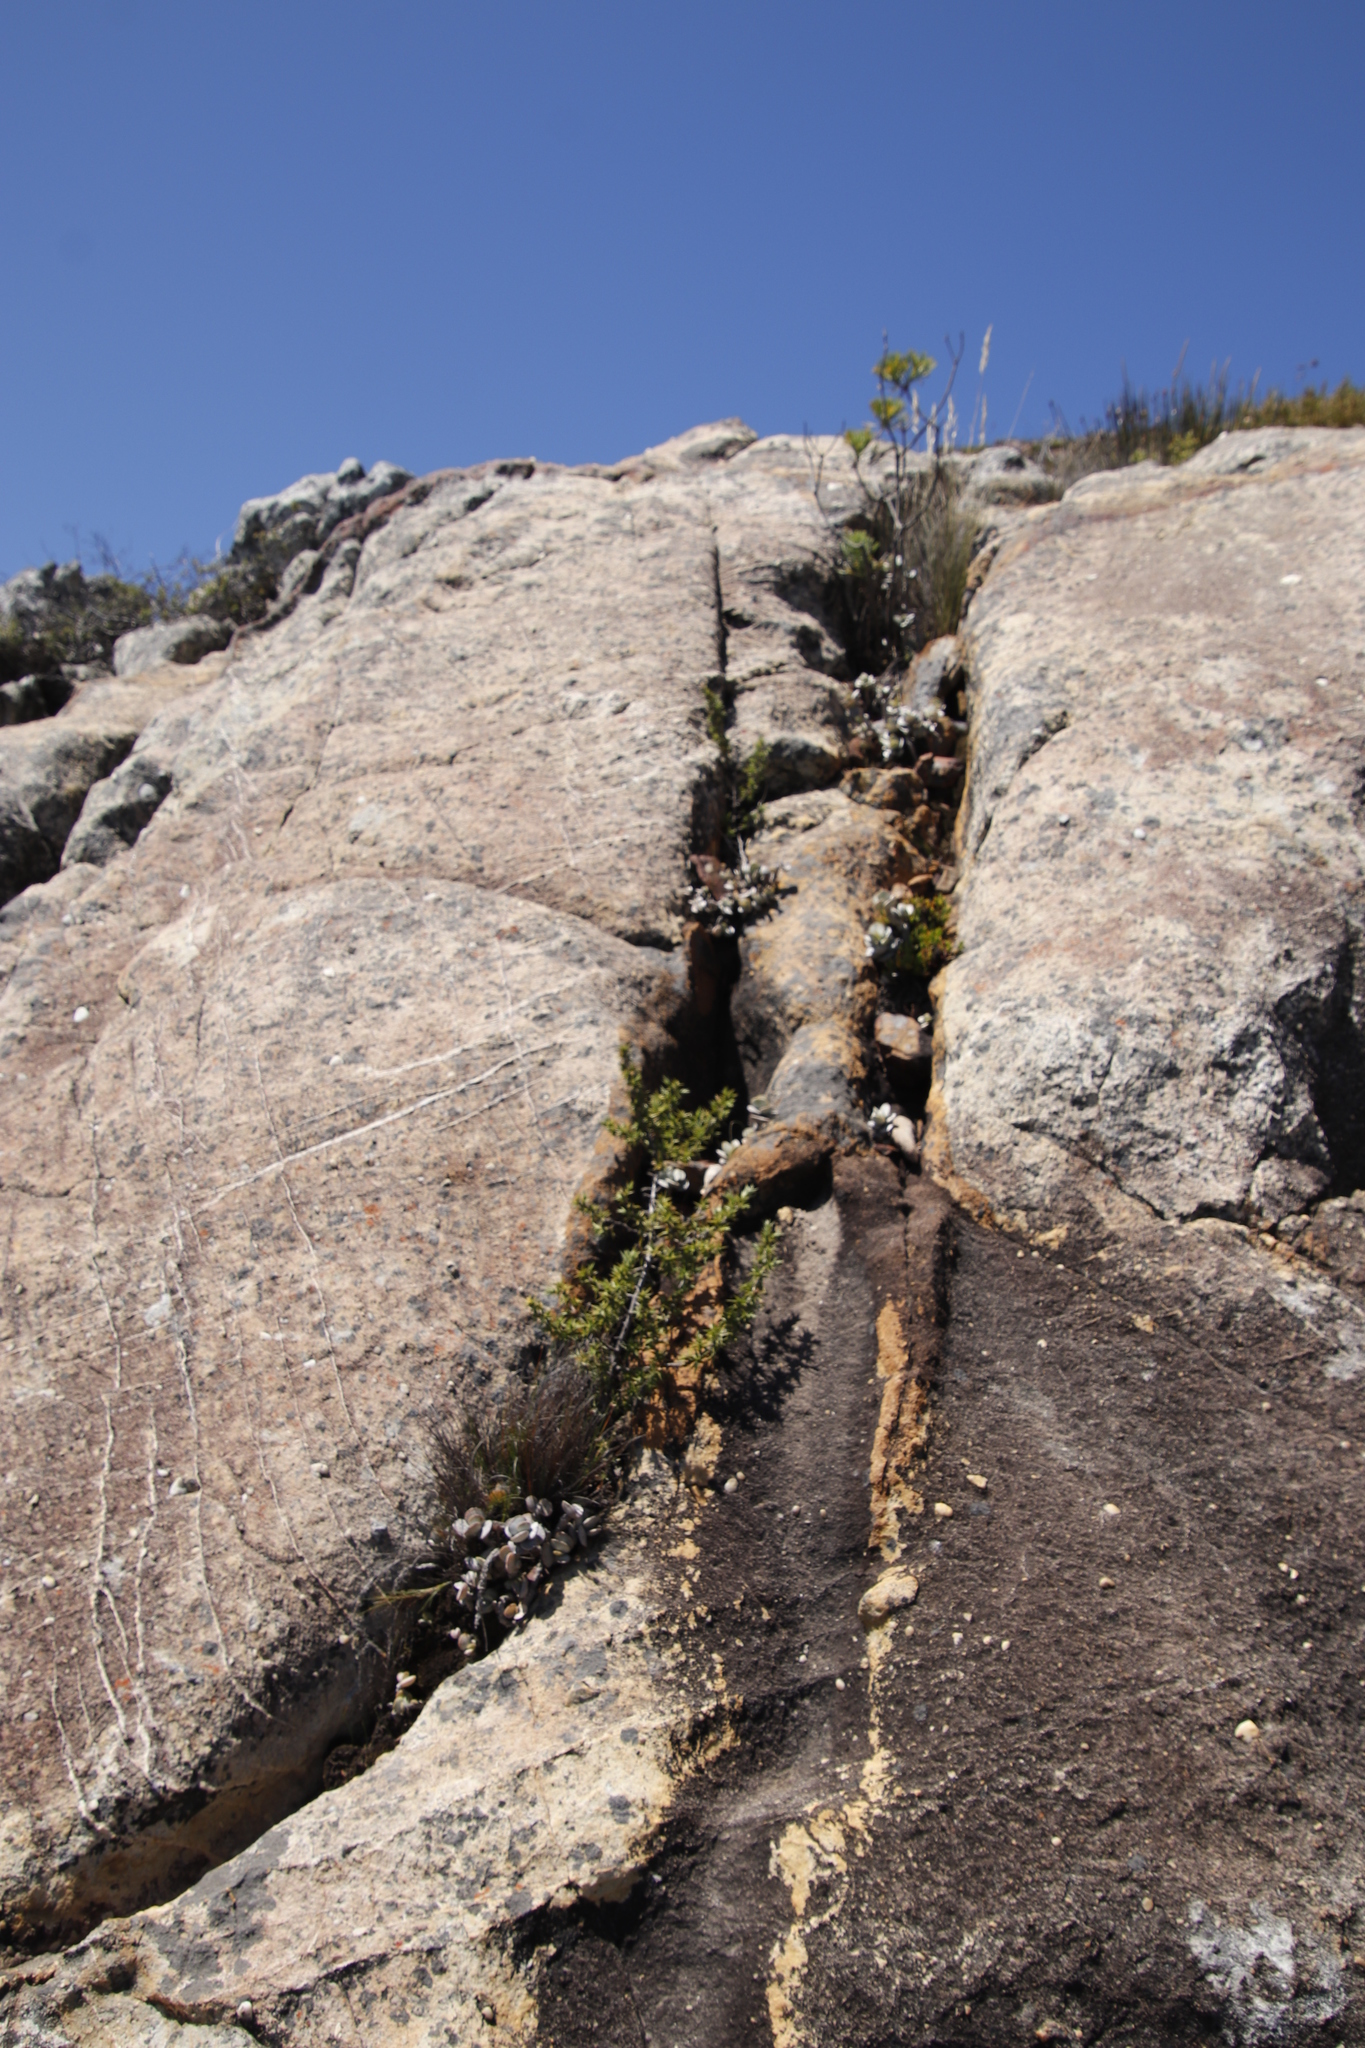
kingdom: Plantae
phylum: Tracheophyta
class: Magnoliopsida
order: Saxifragales
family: Crassulaceae
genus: Adromischus
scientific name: Adromischus hemisphaericus
